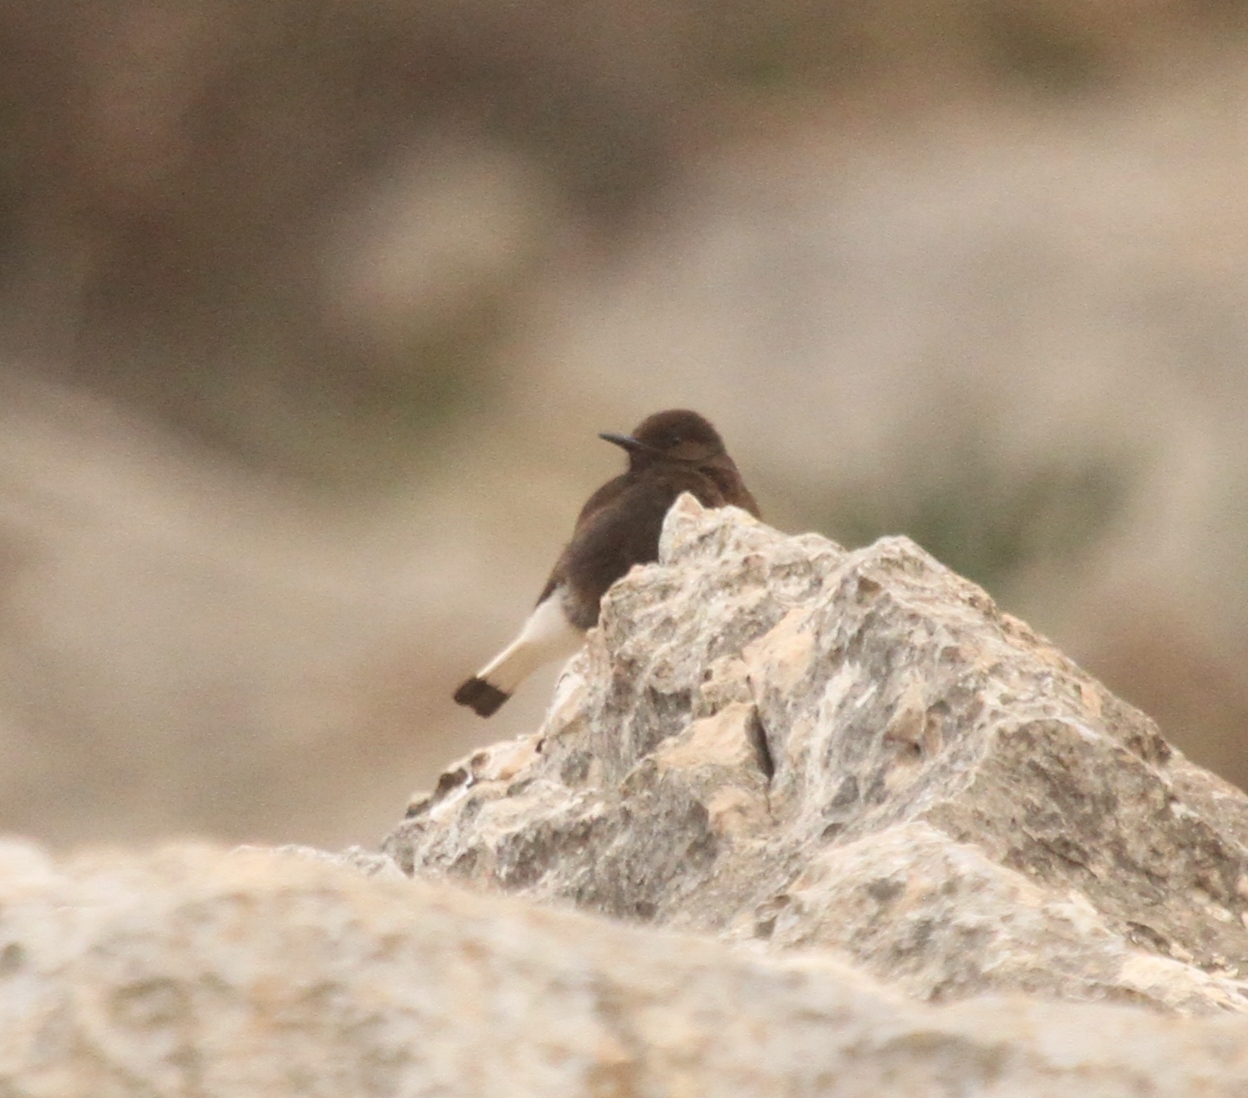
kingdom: Animalia
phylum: Chordata
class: Aves
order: Passeriformes
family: Muscicapidae
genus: Oenanthe
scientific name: Oenanthe leucura
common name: Black wheatear
